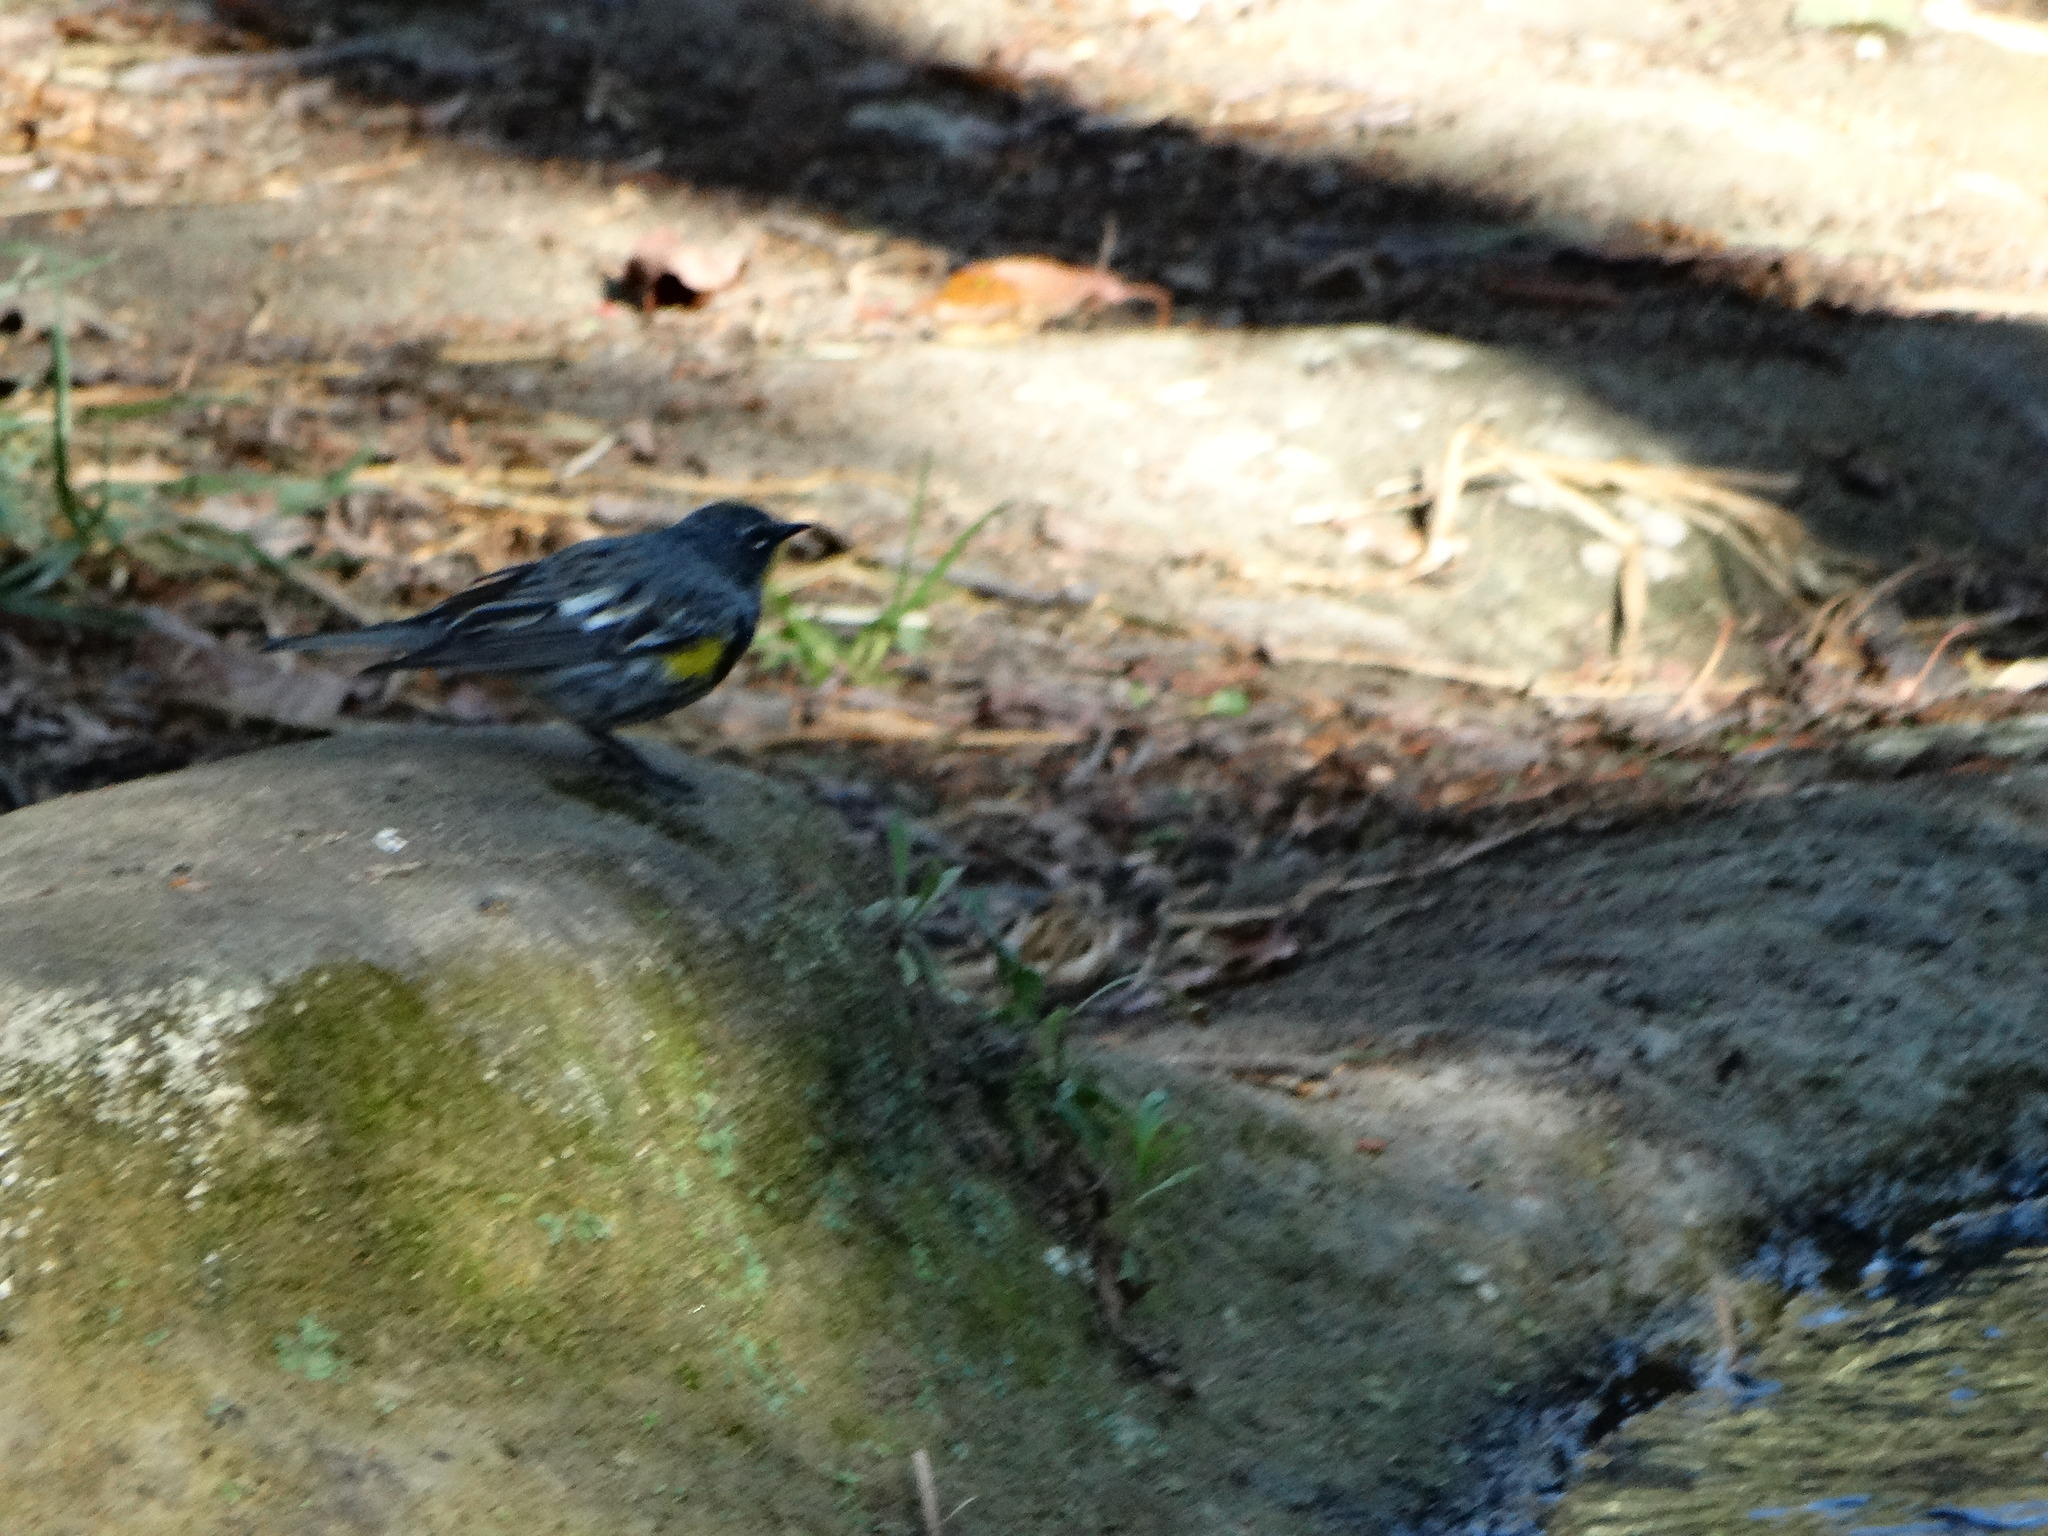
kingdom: Animalia
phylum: Chordata
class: Aves
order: Passeriformes
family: Parulidae
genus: Setophaga
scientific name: Setophaga coronata
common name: Myrtle warbler
